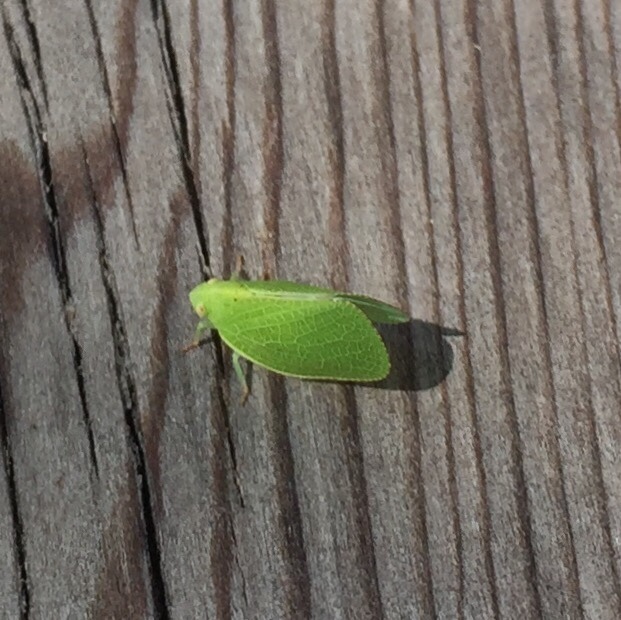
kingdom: Animalia
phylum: Arthropoda
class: Insecta
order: Hemiptera
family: Acanaloniidae
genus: Acanalonia
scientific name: Acanalonia conica
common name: Green cone-headed planthopper
